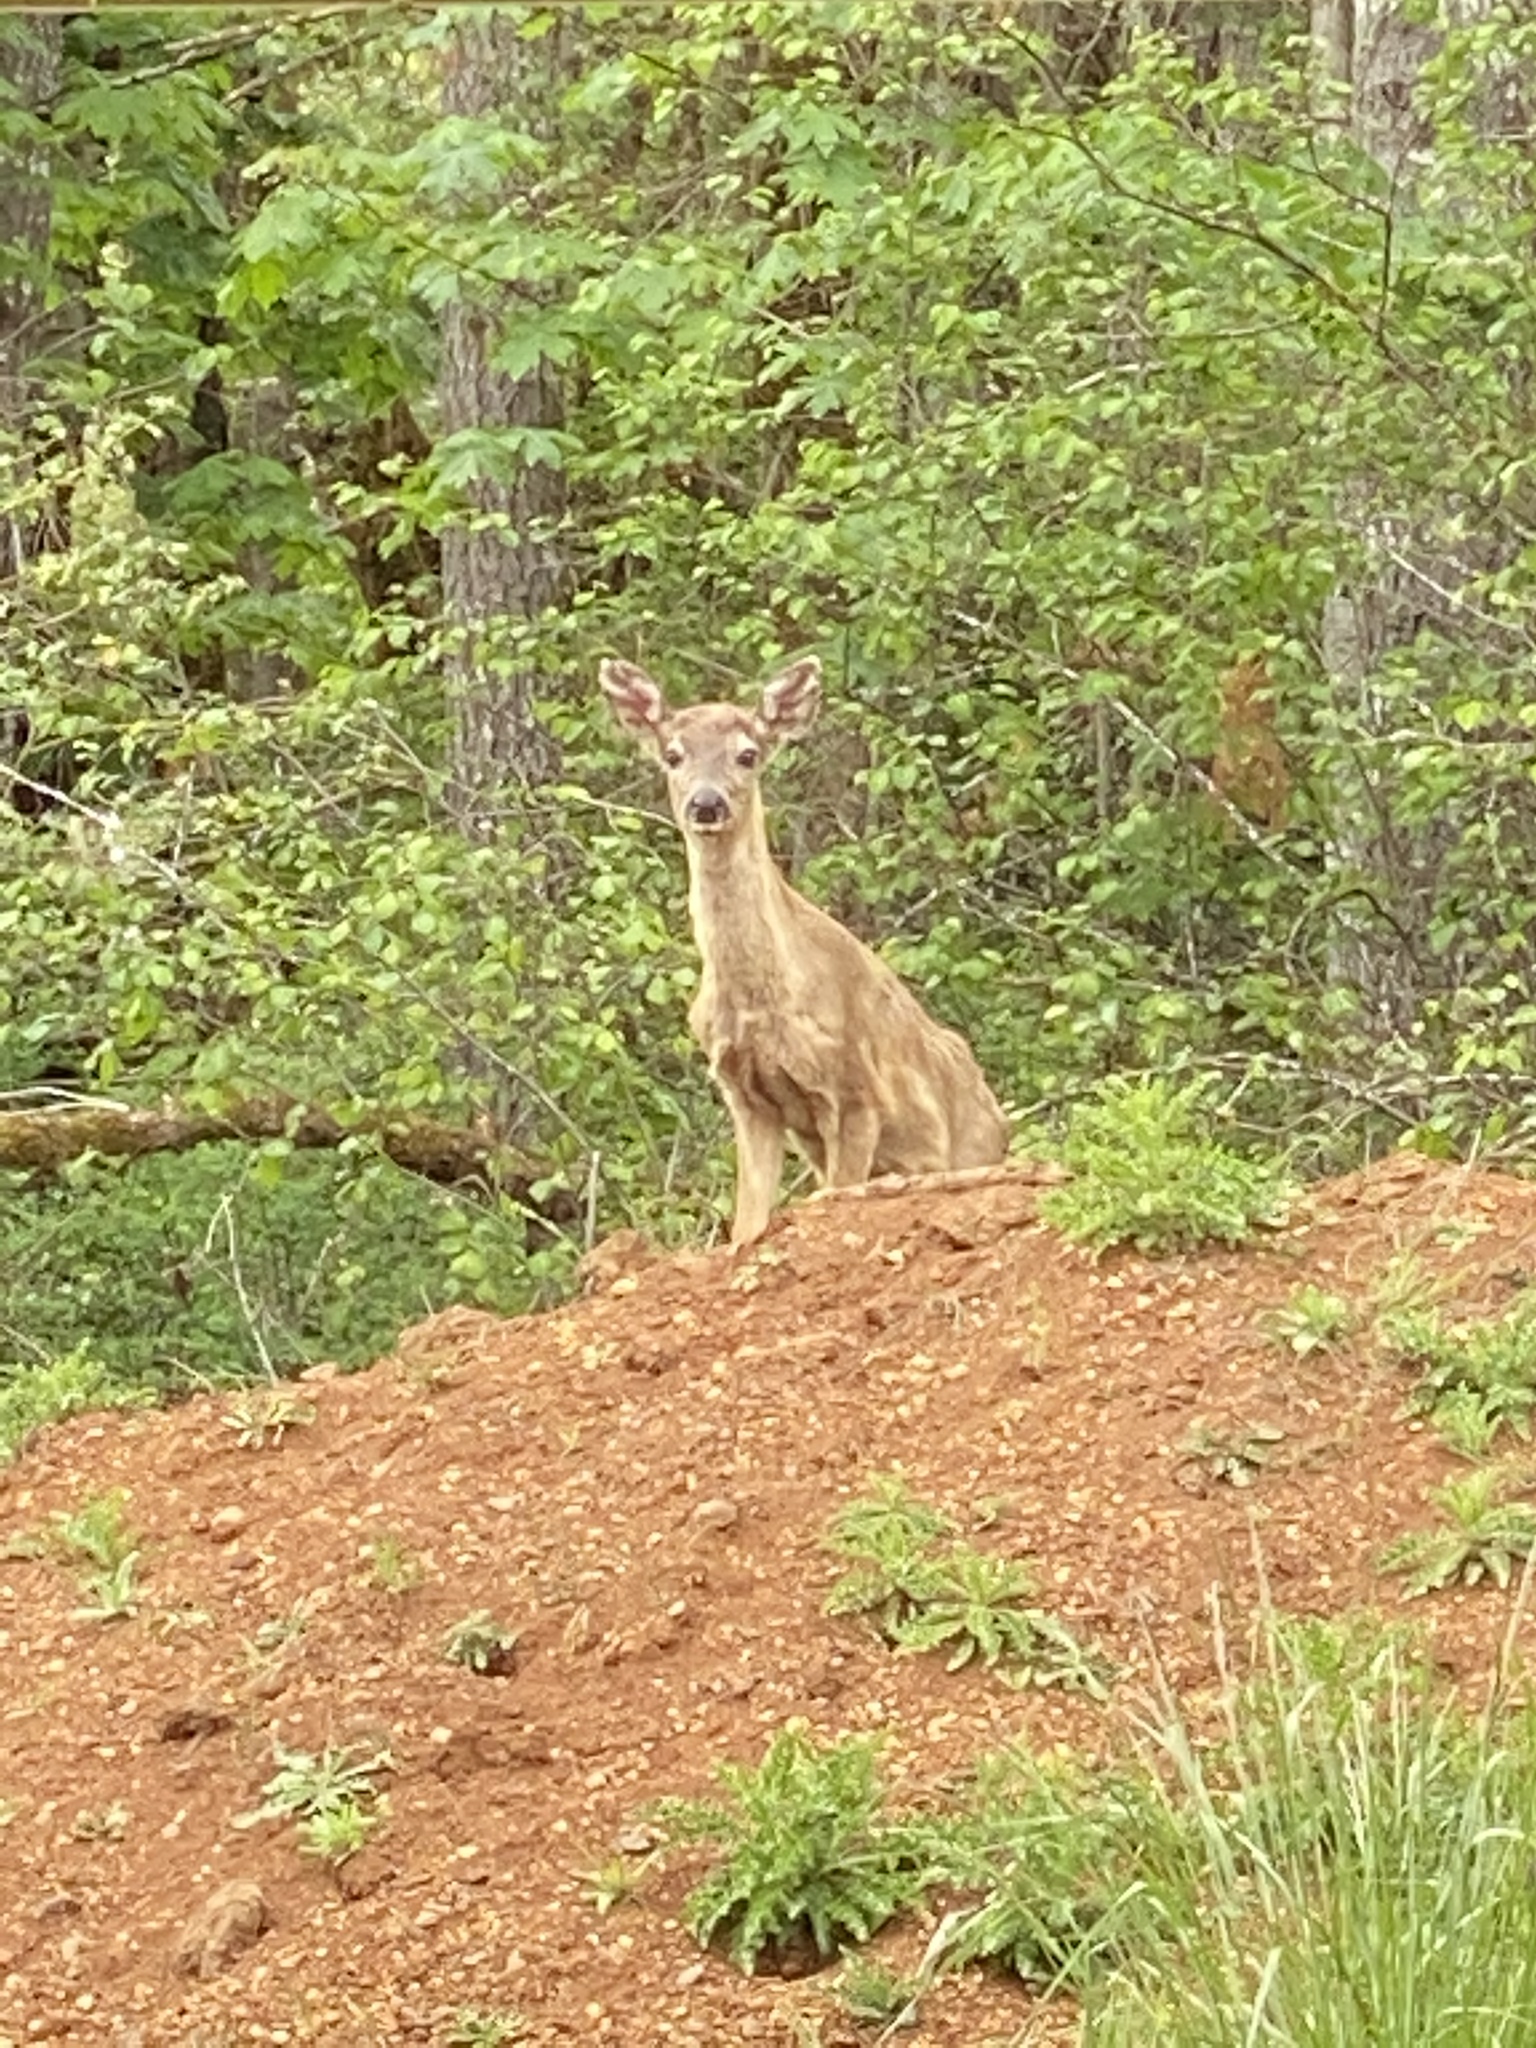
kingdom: Animalia
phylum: Chordata
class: Mammalia
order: Artiodactyla
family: Cervidae
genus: Odocoileus
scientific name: Odocoileus hemionus
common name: Mule deer
